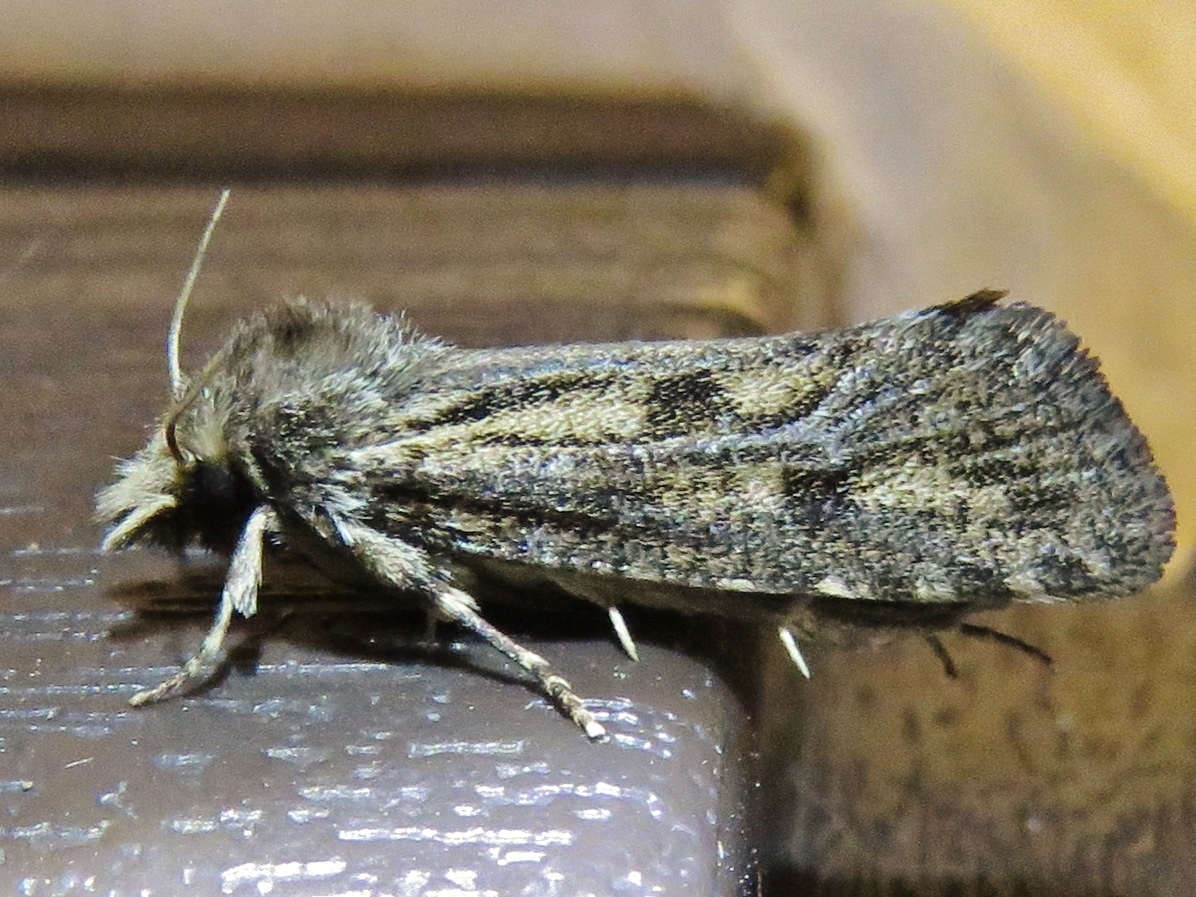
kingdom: Animalia
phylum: Arthropoda
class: Insecta
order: Lepidoptera
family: Tineidae
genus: Acrolophus
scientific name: Acrolophus popeanella
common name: Clemens' grass tubeworm moth
